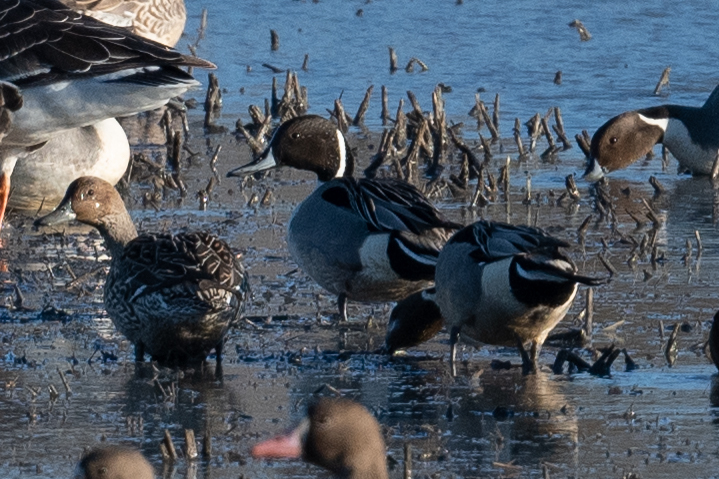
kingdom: Animalia
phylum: Chordata
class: Aves
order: Anseriformes
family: Anatidae
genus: Anas
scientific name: Anas acuta
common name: Northern pintail
